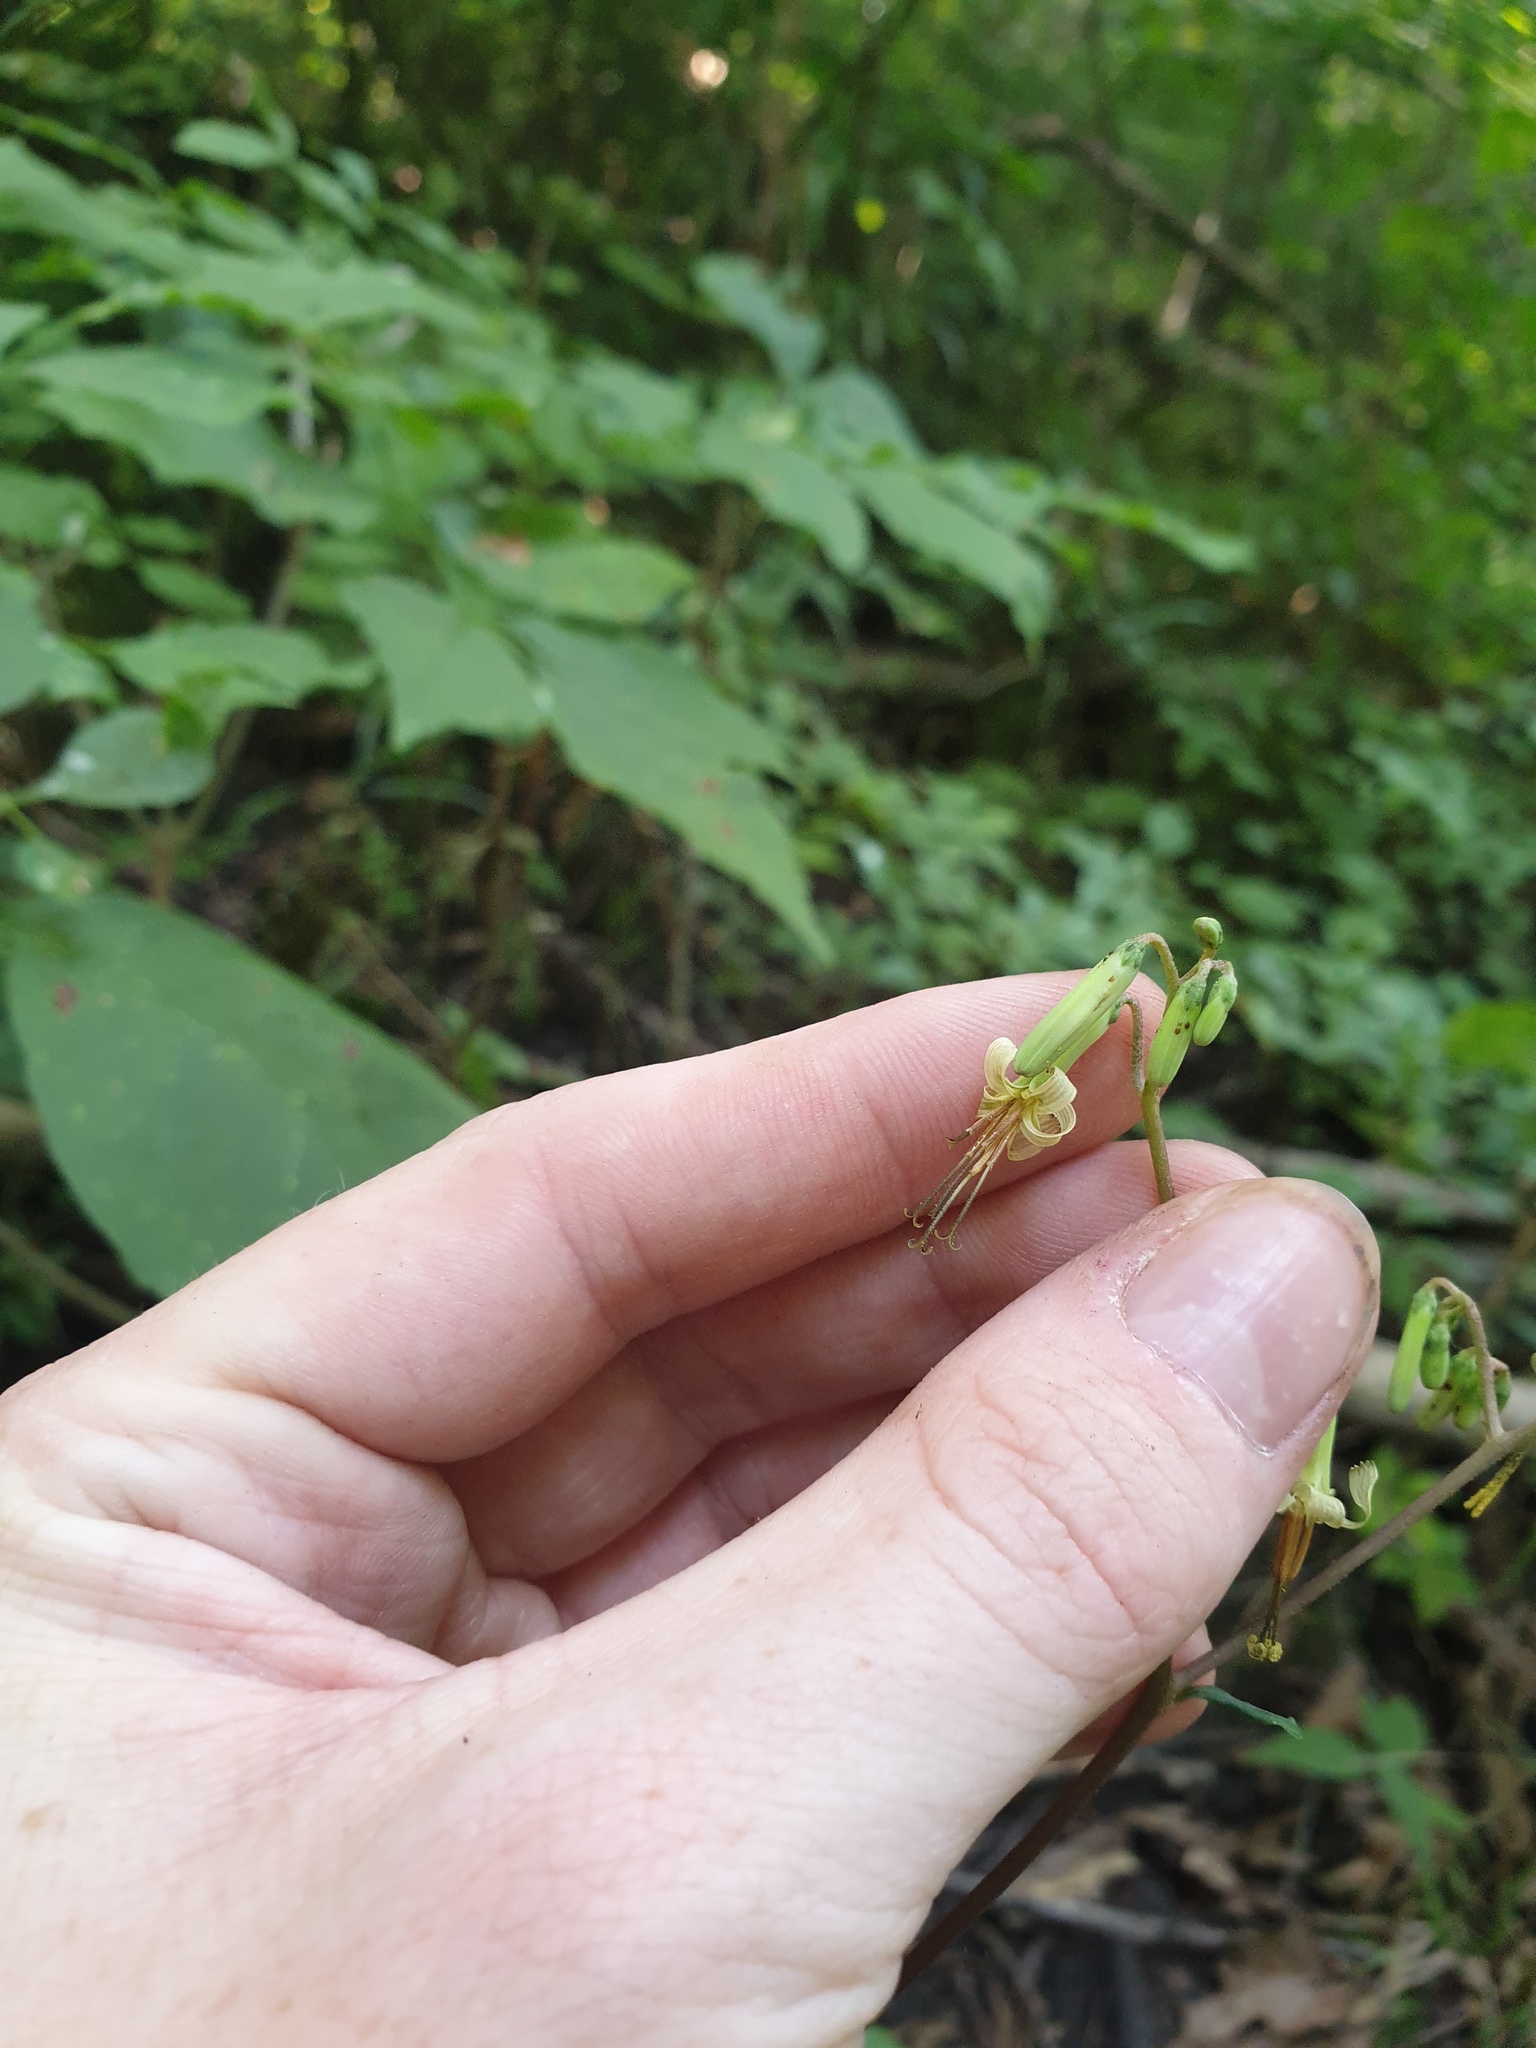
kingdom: Plantae
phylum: Tracheophyta
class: Magnoliopsida
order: Asterales
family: Asteraceae
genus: Nabalus
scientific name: Nabalus altissima
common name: Tall rattlesnakeroot
